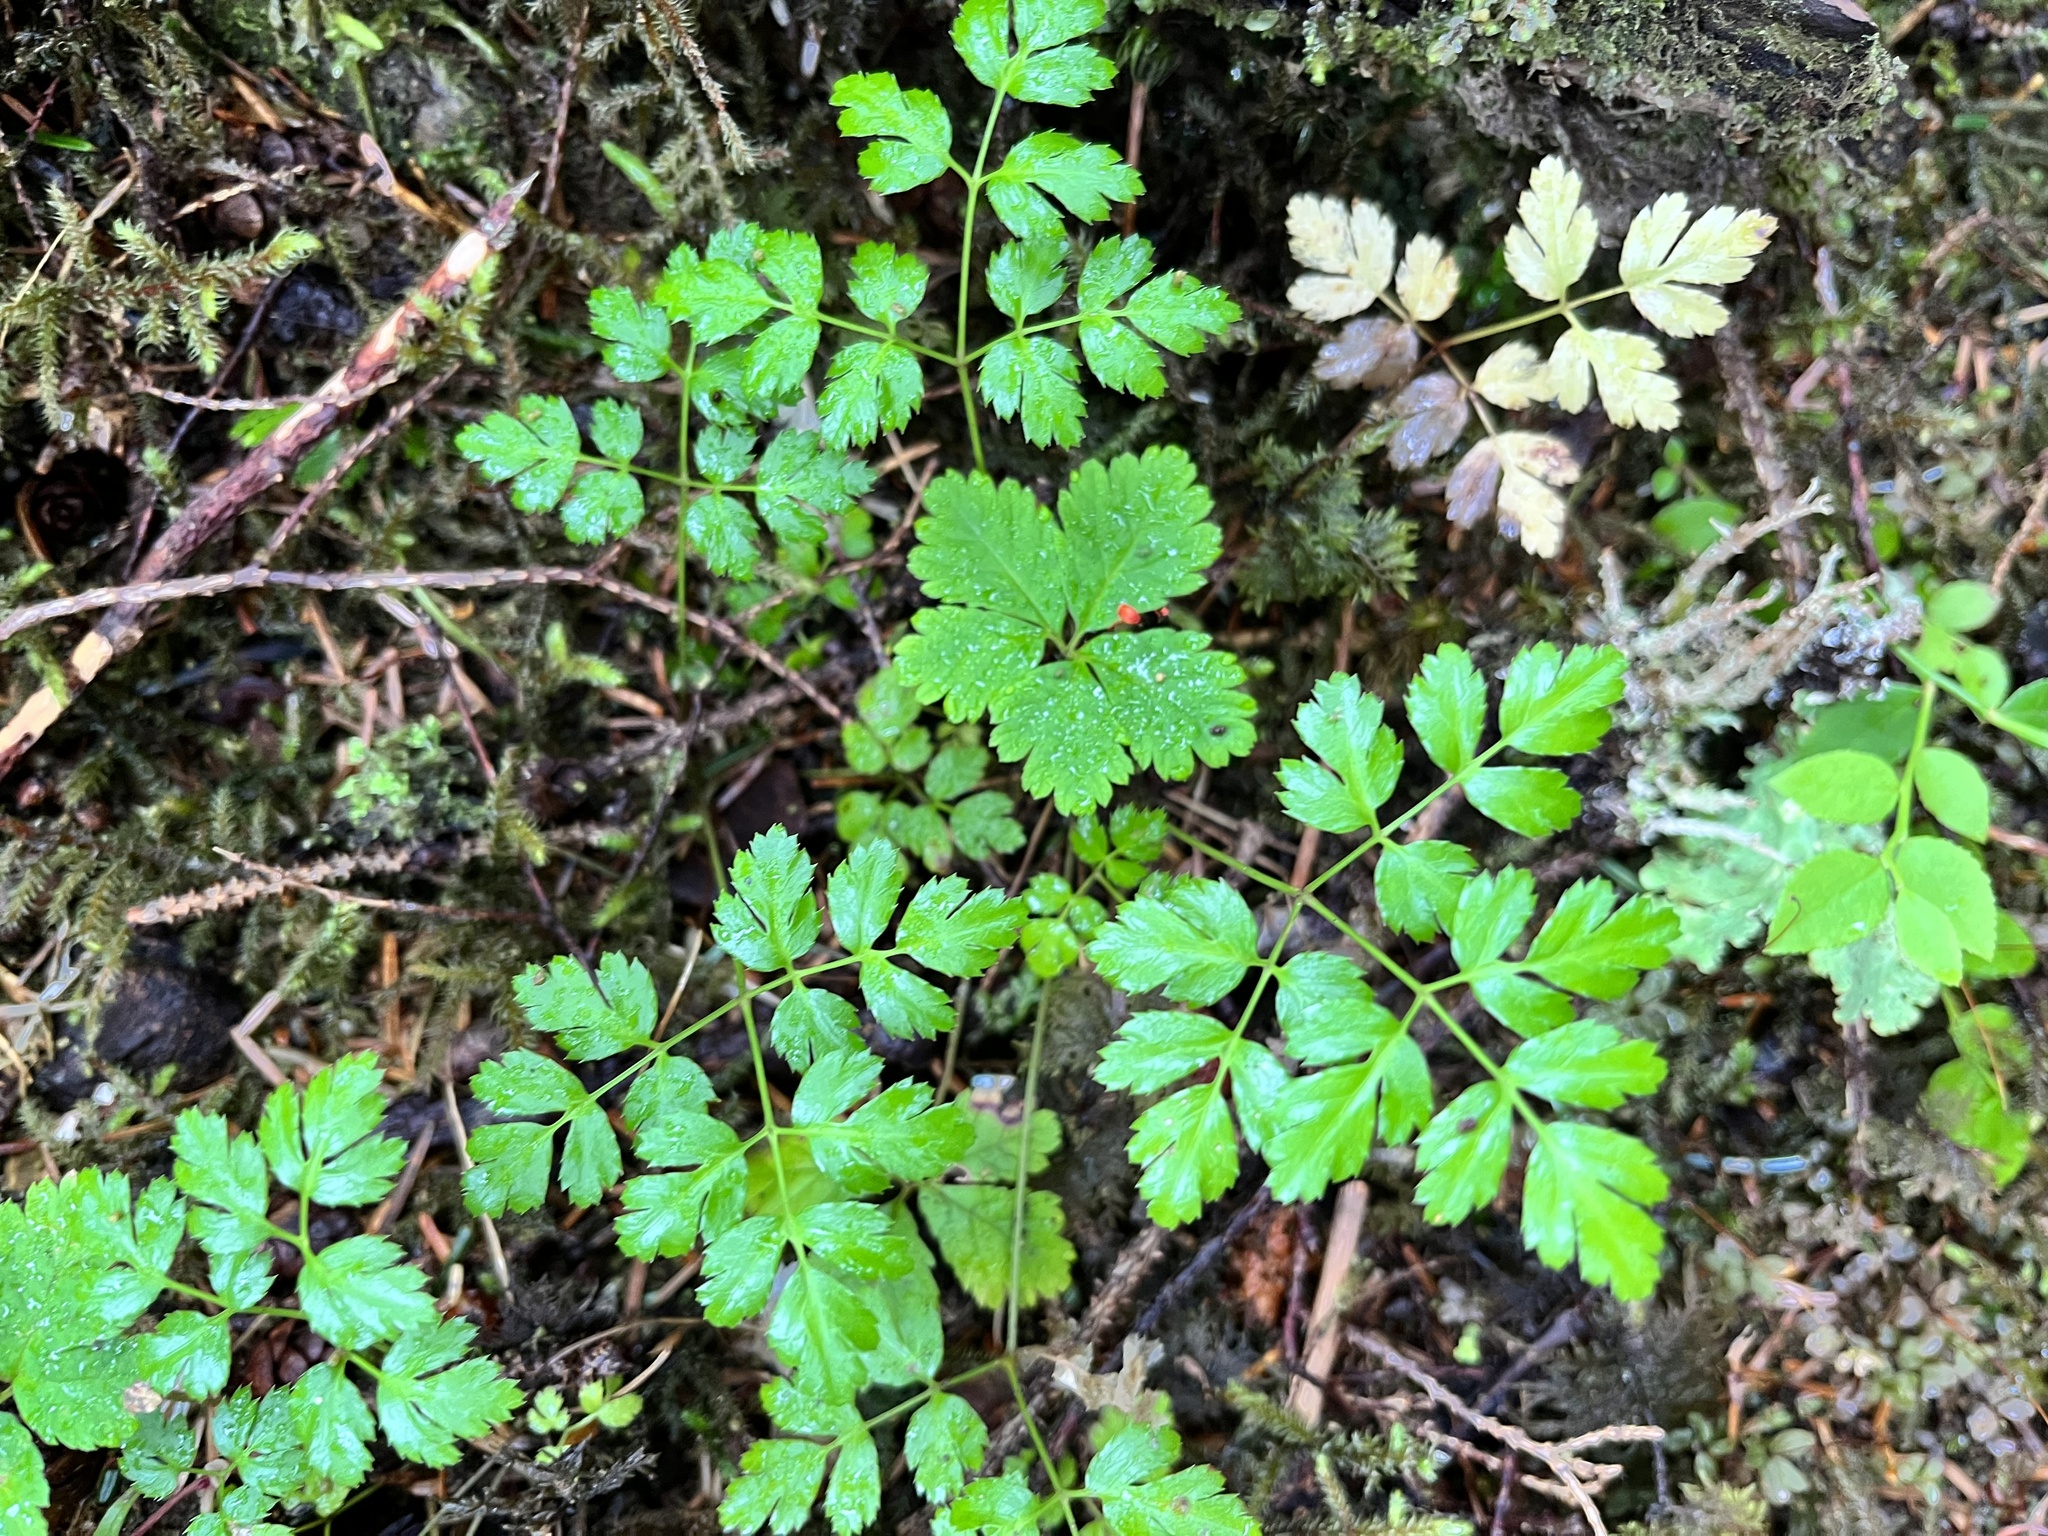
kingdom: Plantae
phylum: Tracheophyta
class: Magnoliopsida
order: Ranunculales
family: Ranunculaceae
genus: Coptis
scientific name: Coptis aspleniifolia
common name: Fern-leaved goldthread
